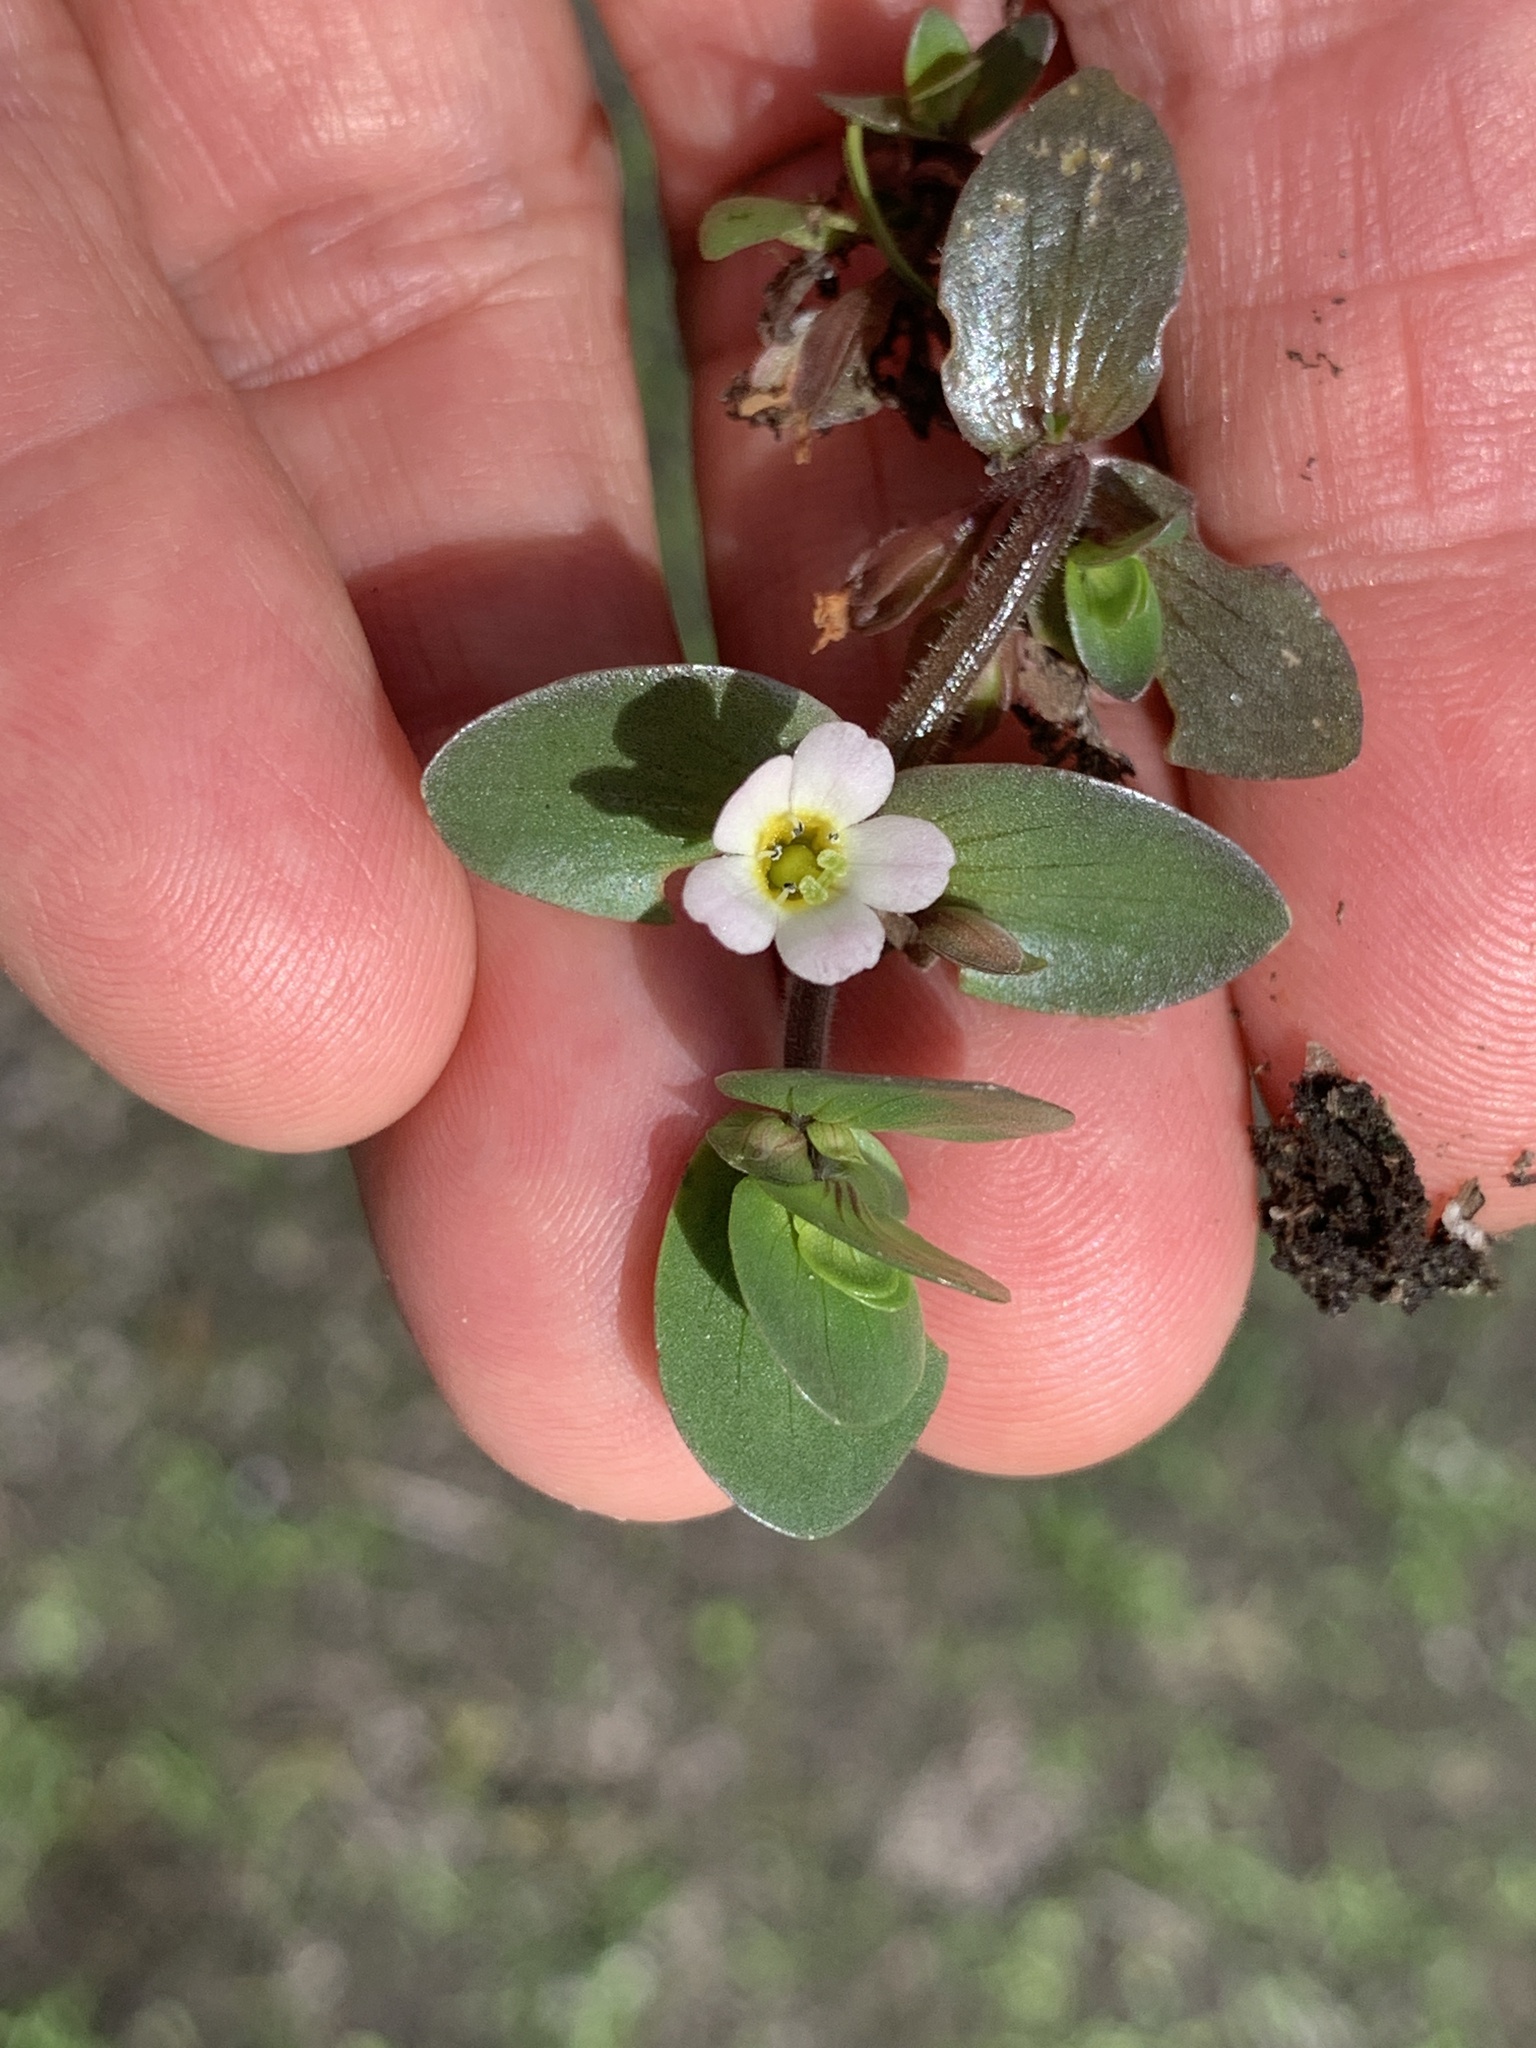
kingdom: Plantae
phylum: Tracheophyta
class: Magnoliopsida
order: Lamiales
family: Plantaginaceae
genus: Bacopa
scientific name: Bacopa rotundifolia
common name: Disc water hyssop
